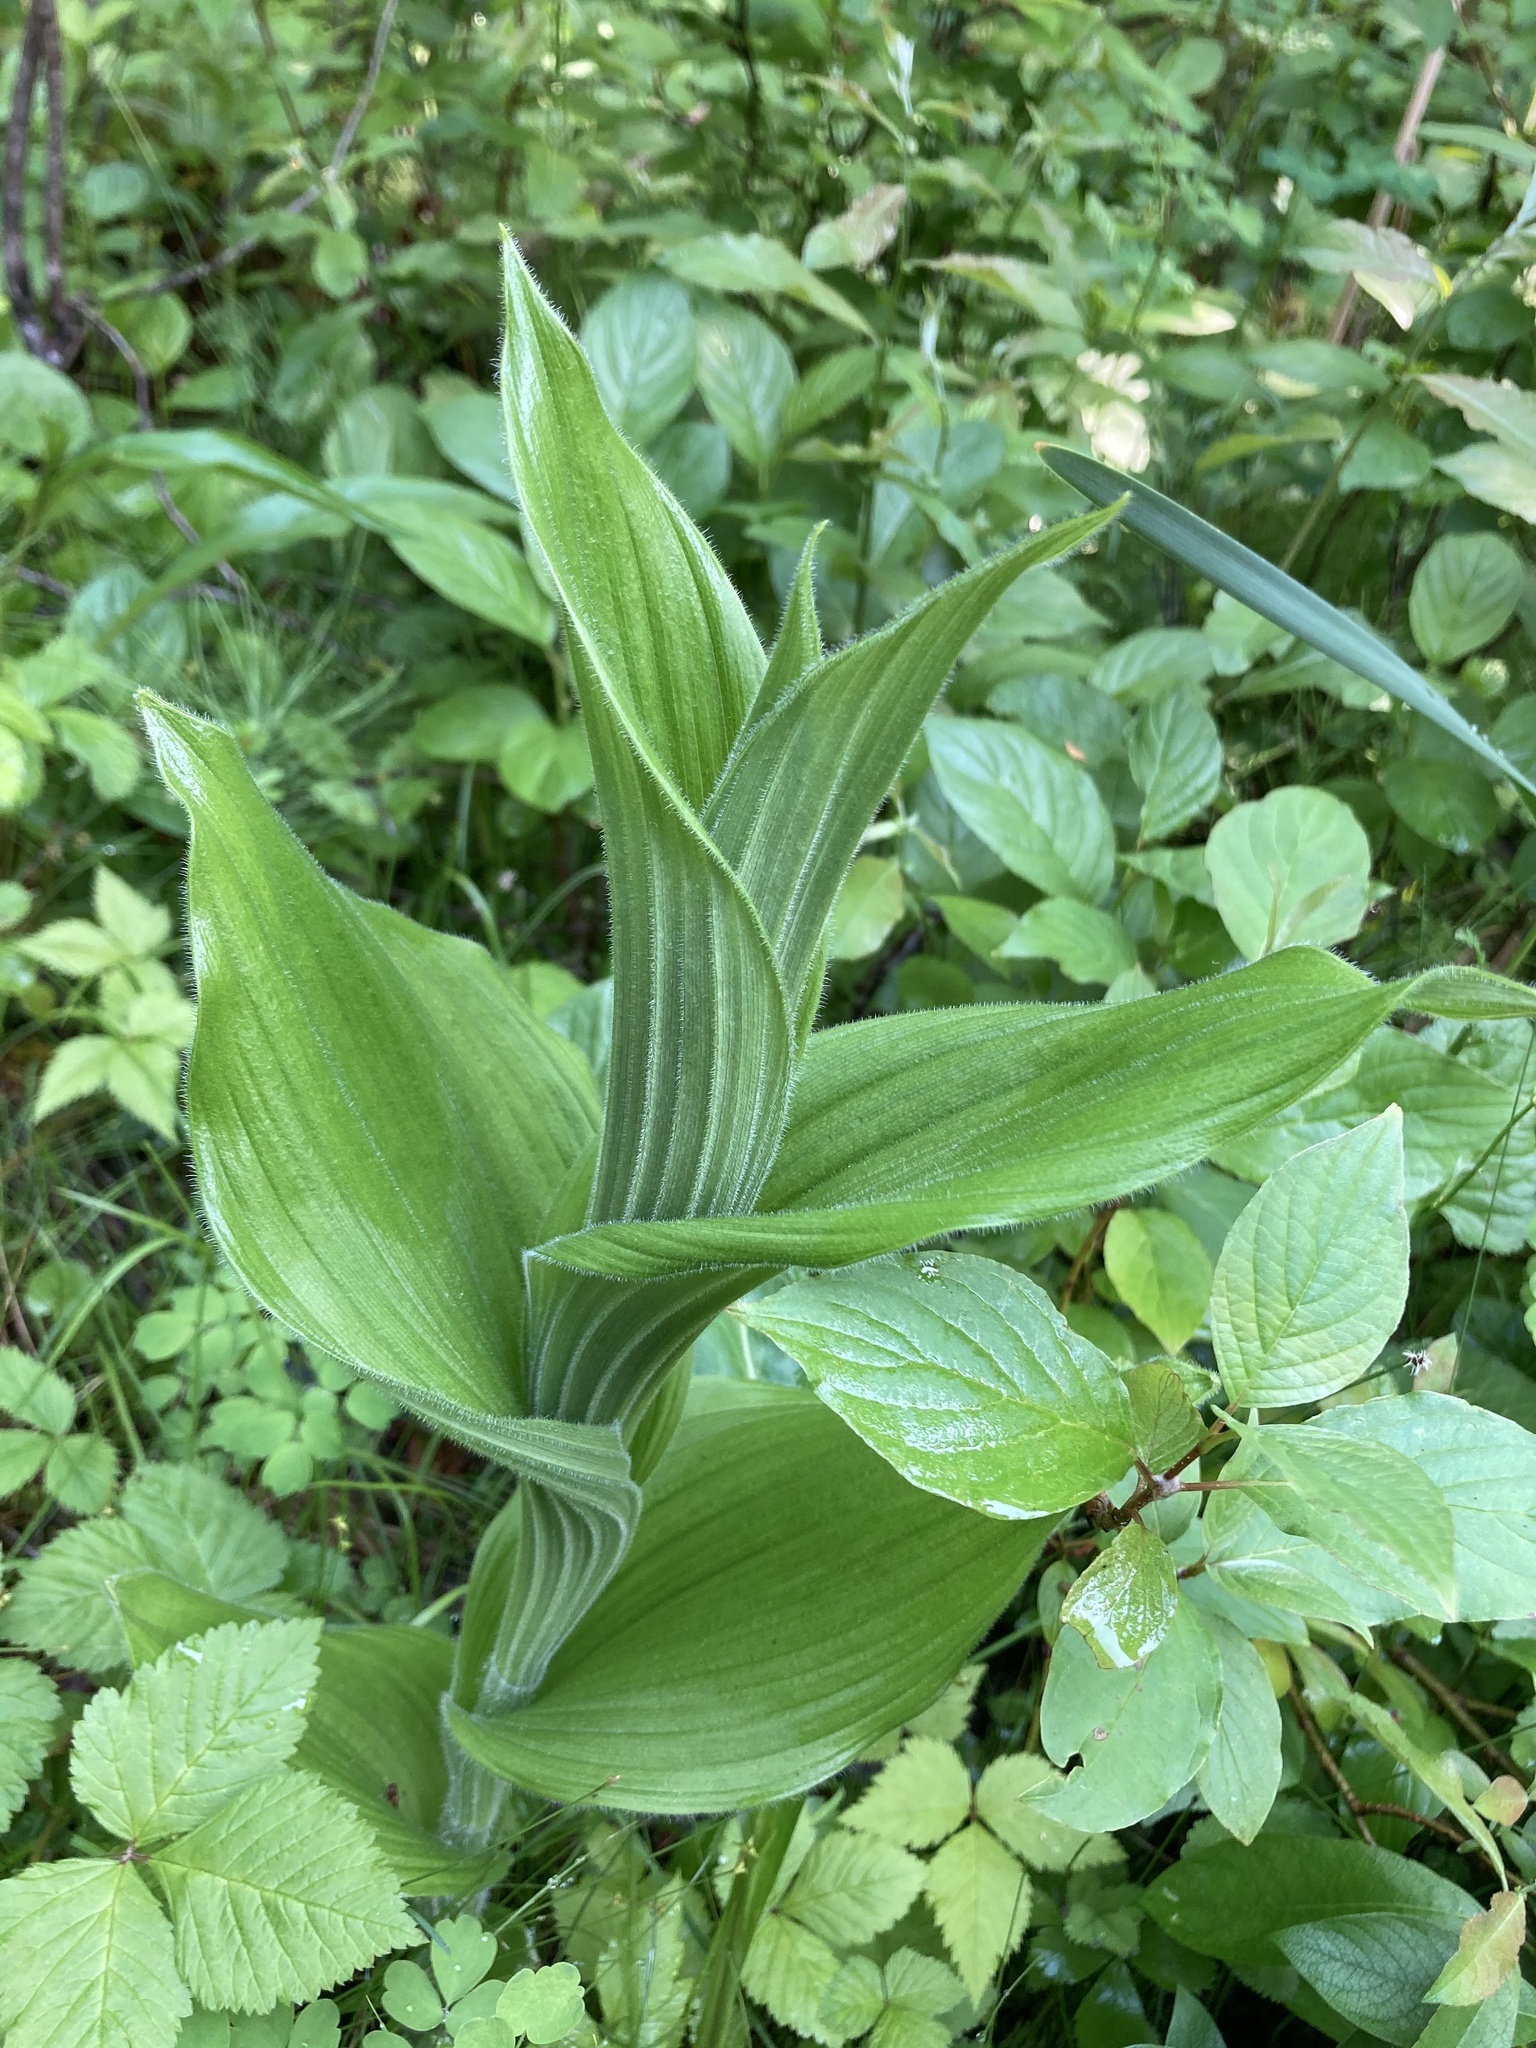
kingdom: Plantae
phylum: Tracheophyta
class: Liliopsida
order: Asparagales
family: Orchidaceae
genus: Cypripedium
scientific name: Cypripedium reginae
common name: Queen lady's-slipper
